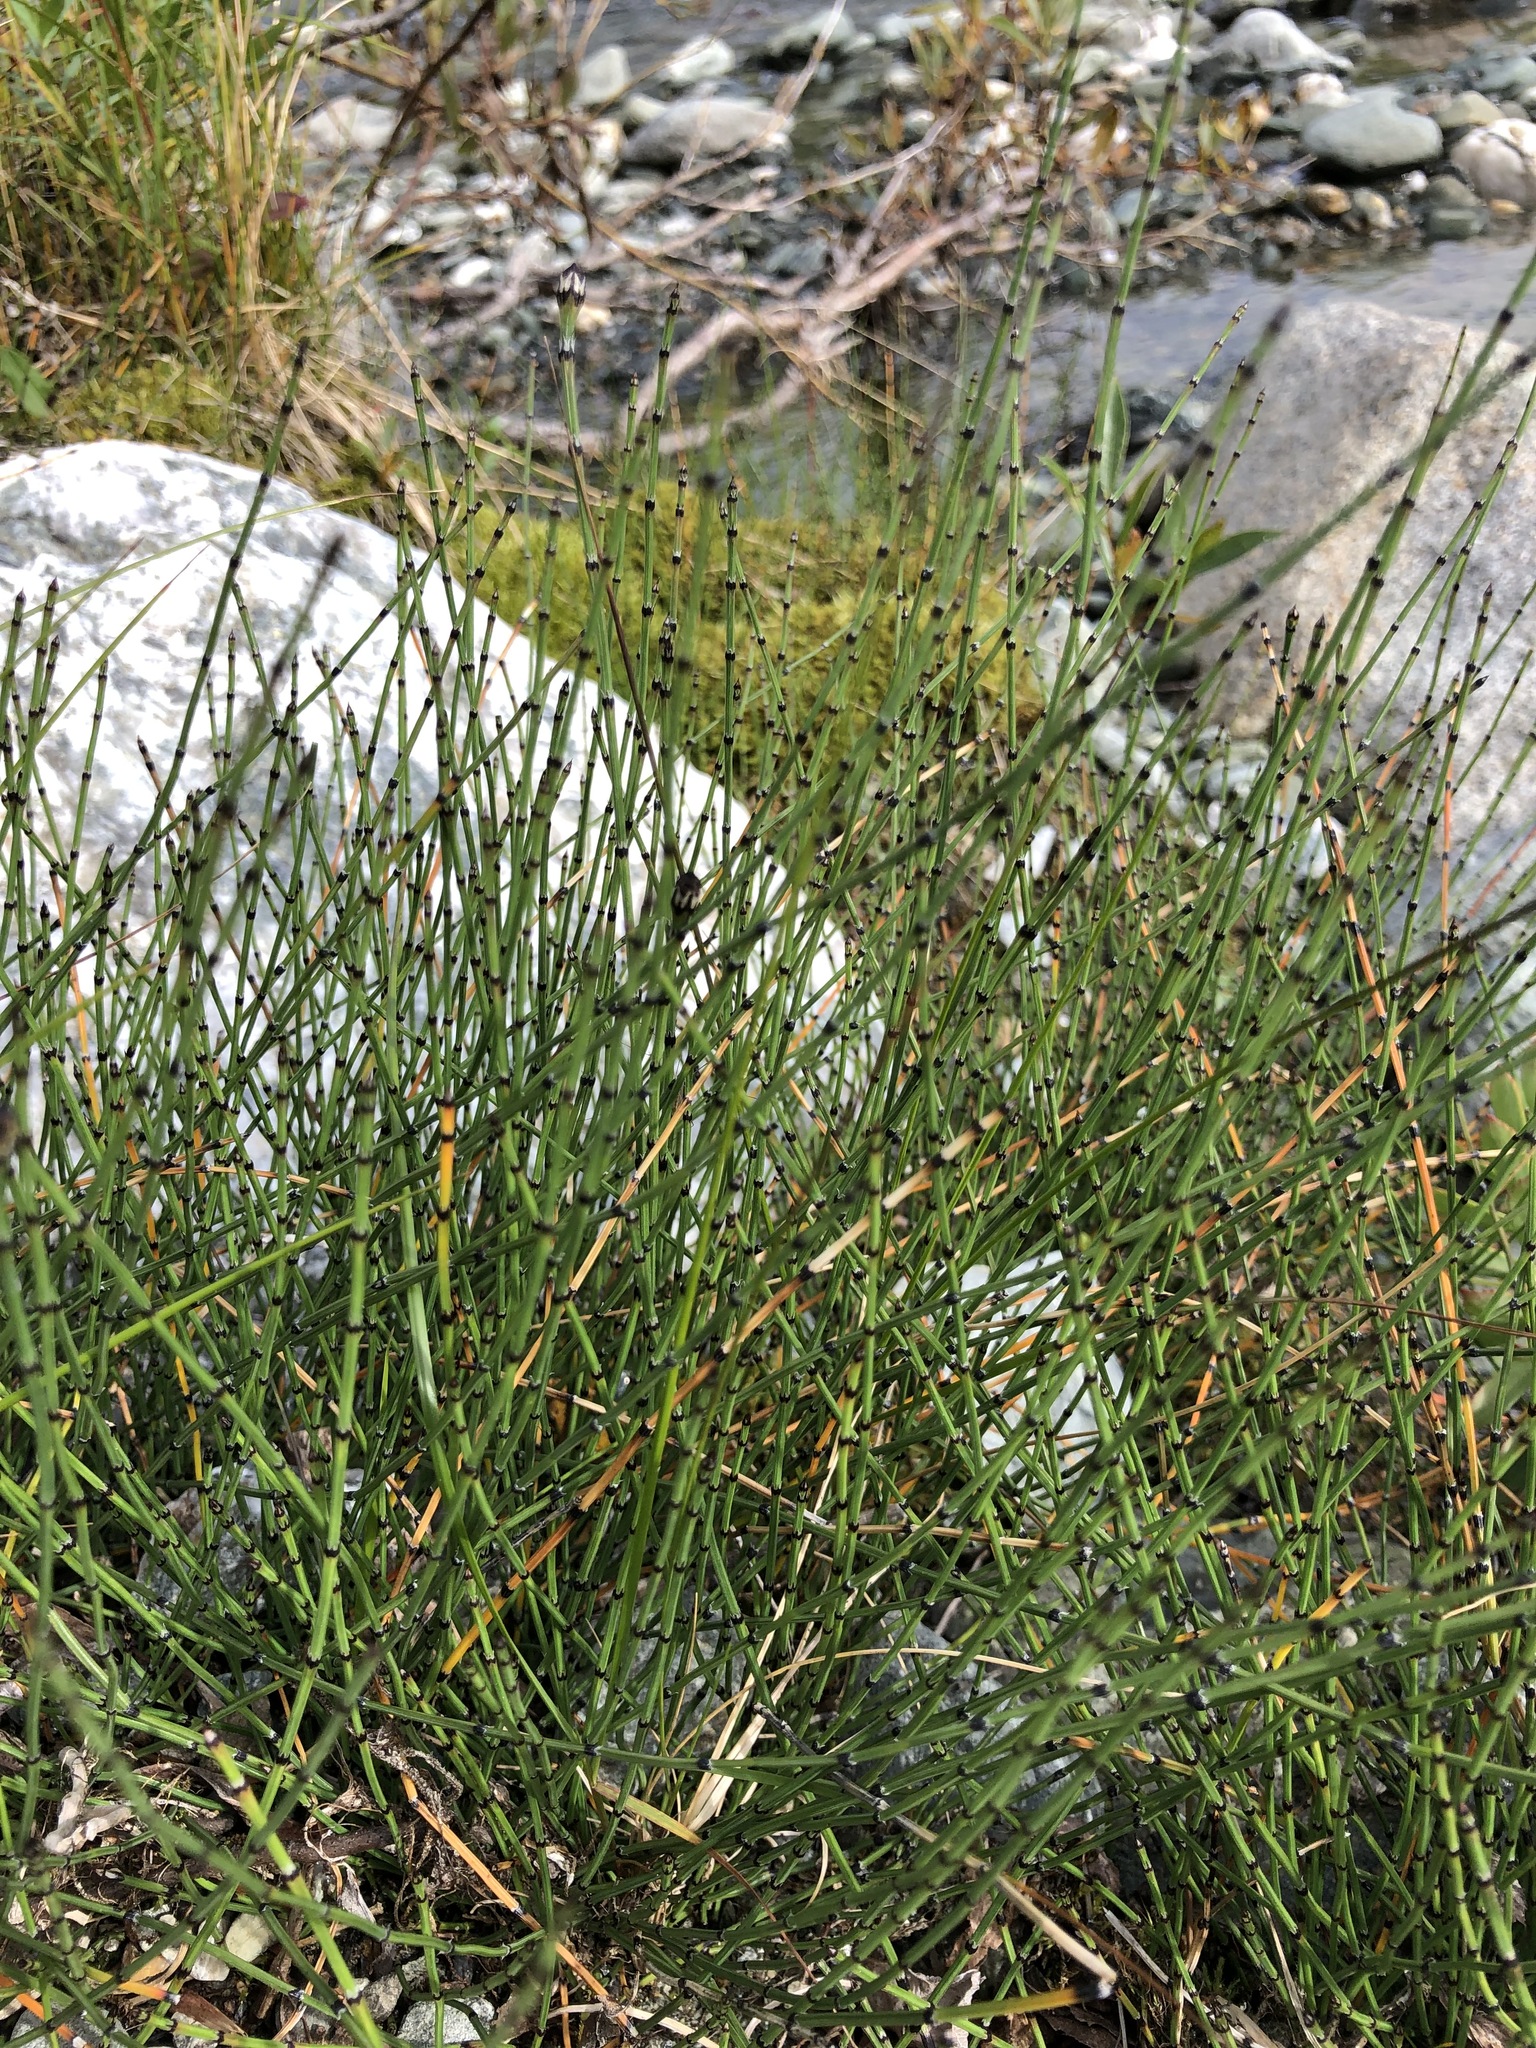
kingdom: Plantae
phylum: Tracheophyta
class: Polypodiopsida
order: Equisetales
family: Equisetaceae
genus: Equisetum
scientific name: Equisetum variegatum
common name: Variegated horsetail
